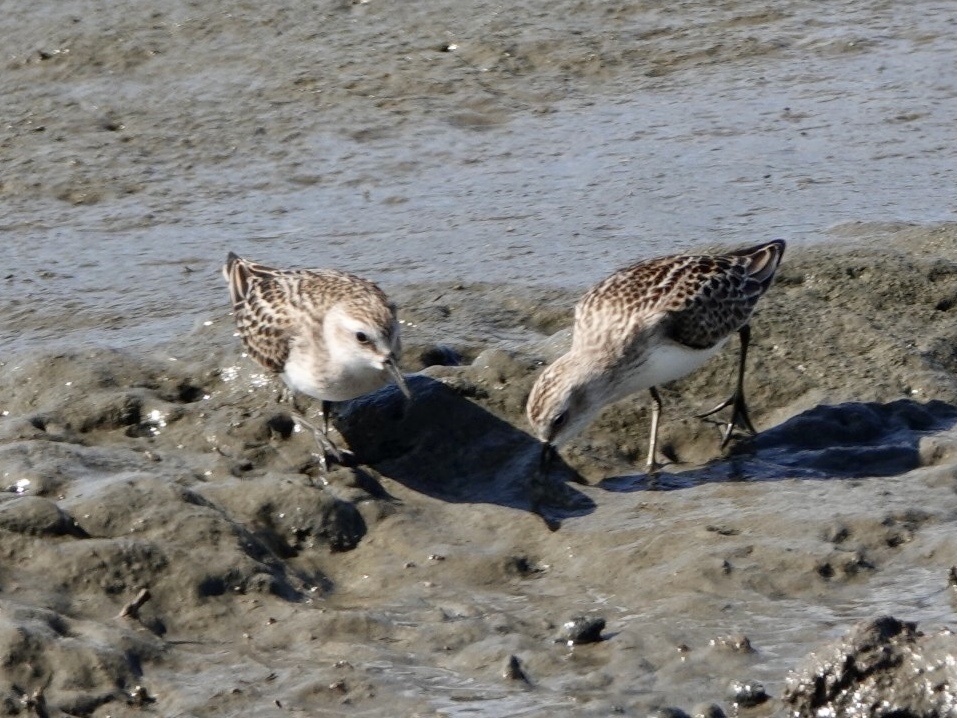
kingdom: Animalia
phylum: Chordata
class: Aves
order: Charadriiformes
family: Scolopacidae
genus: Calidris
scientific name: Calidris pusilla
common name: Semipalmated sandpiper
